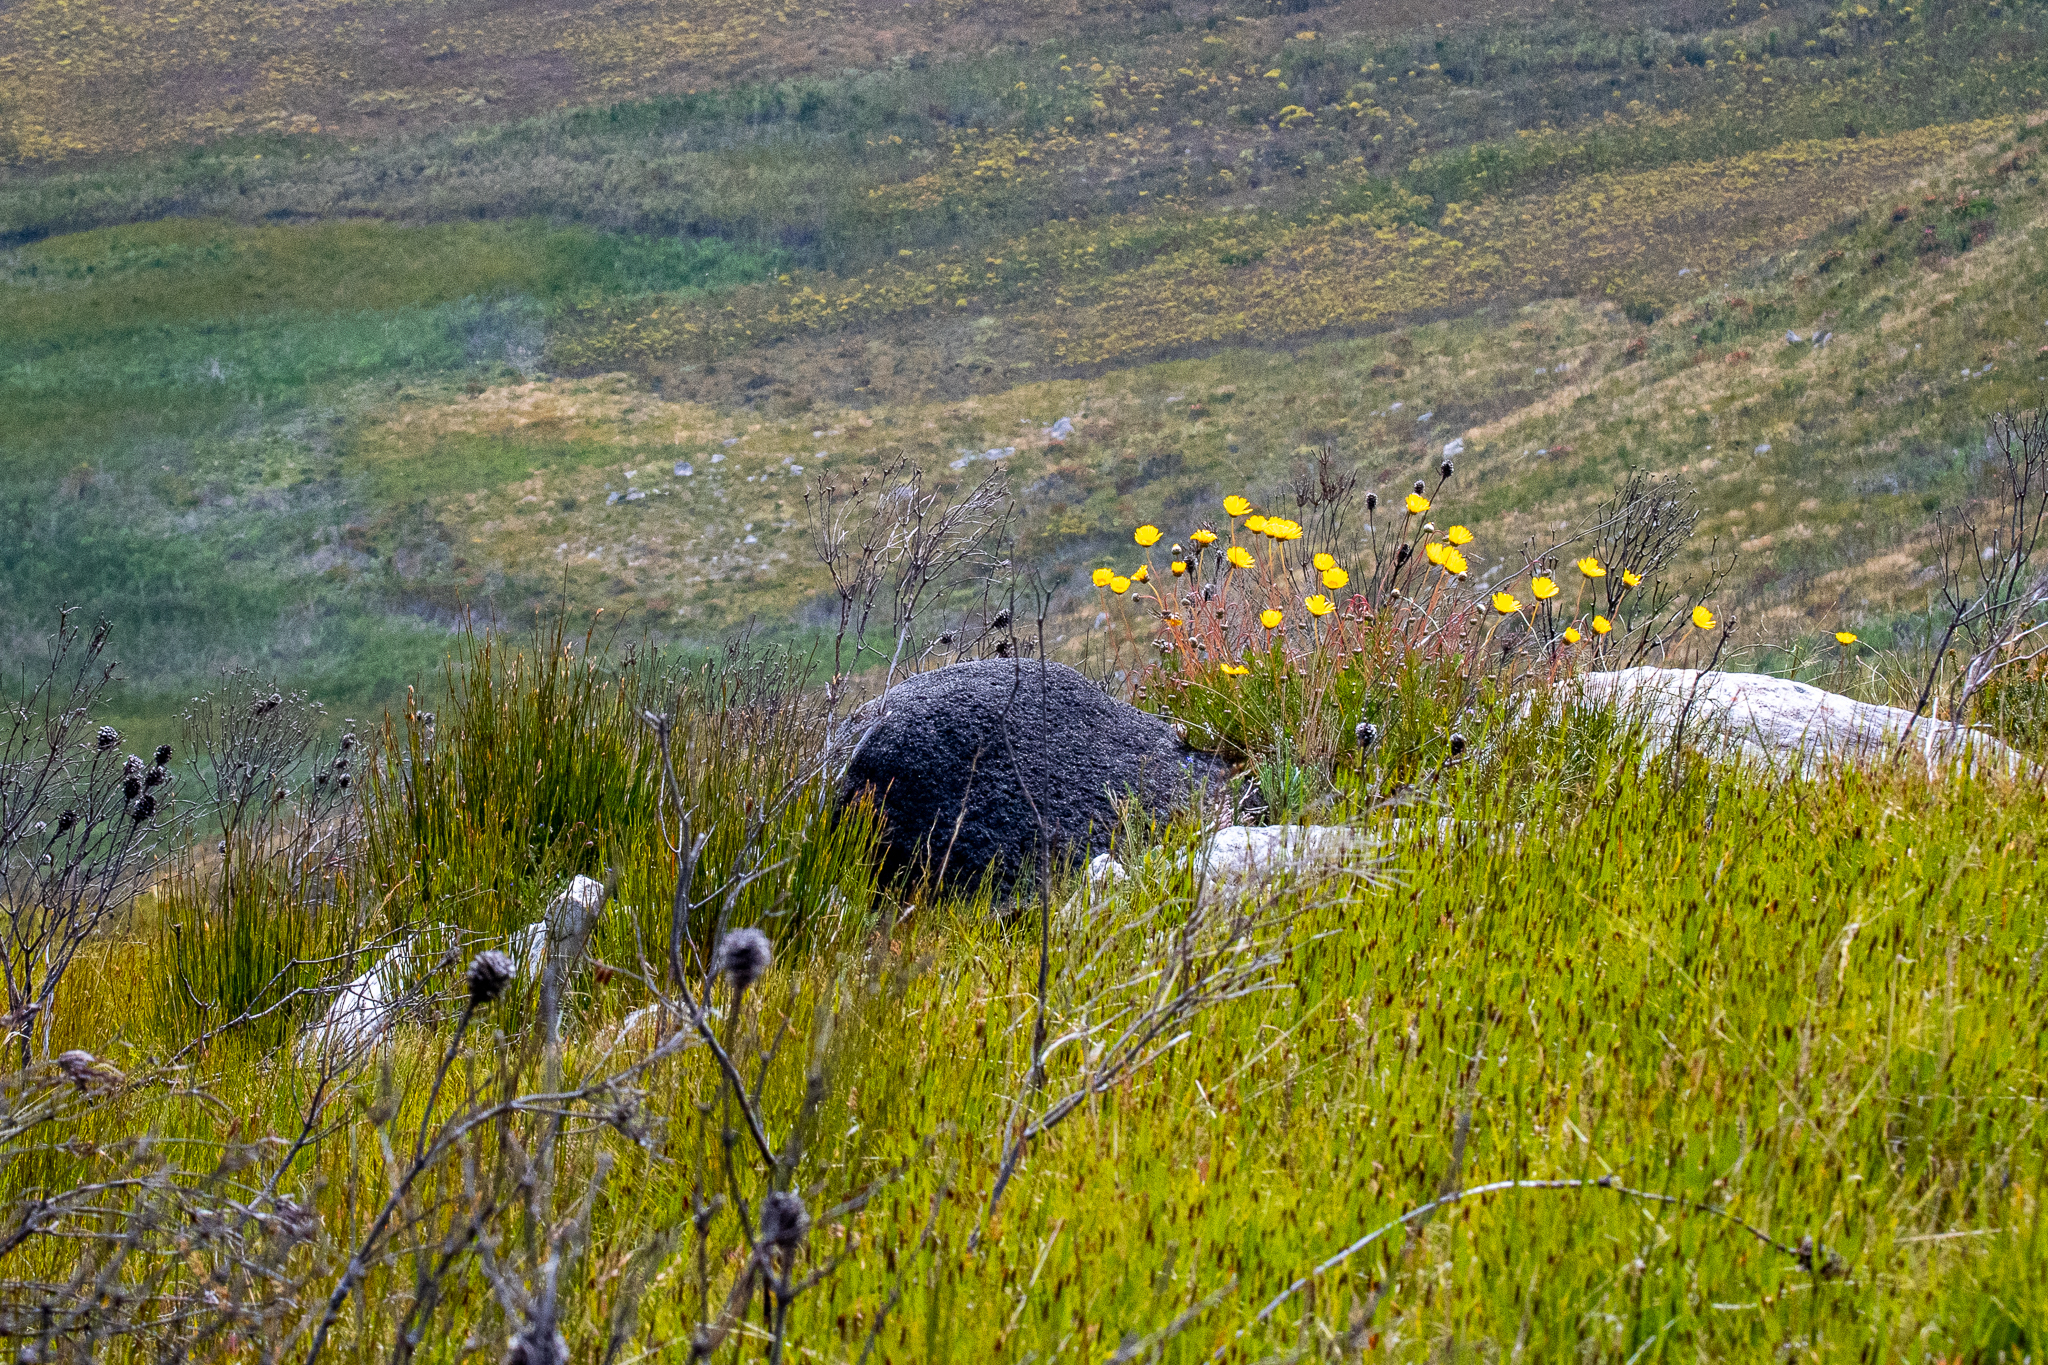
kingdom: Animalia
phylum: Arthropoda
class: Insecta
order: Blattodea
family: Termitidae
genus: Amitermes
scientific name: Amitermes hastatus
